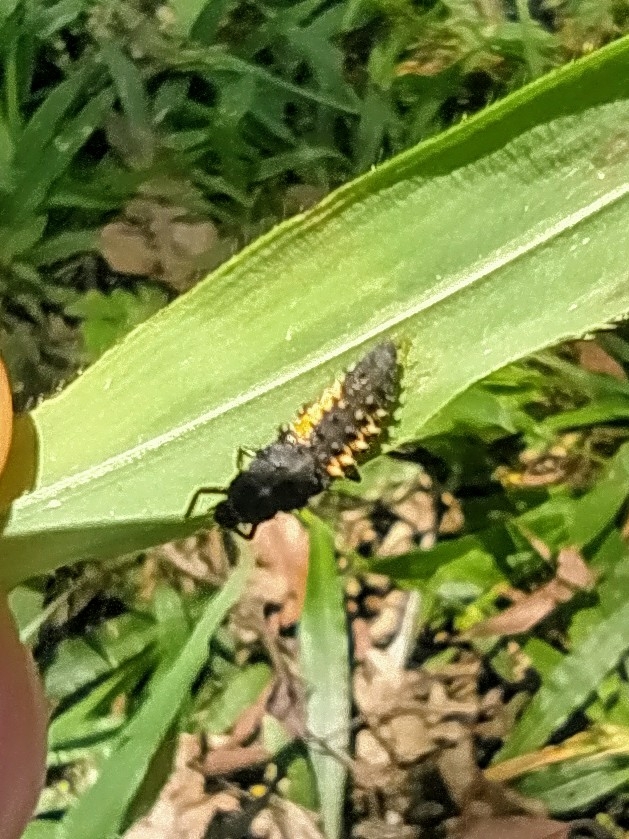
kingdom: Animalia
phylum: Arthropoda
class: Insecta
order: Coleoptera
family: Coccinellidae
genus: Harmonia
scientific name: Harmonia axyridis
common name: Harlequin ladybird
